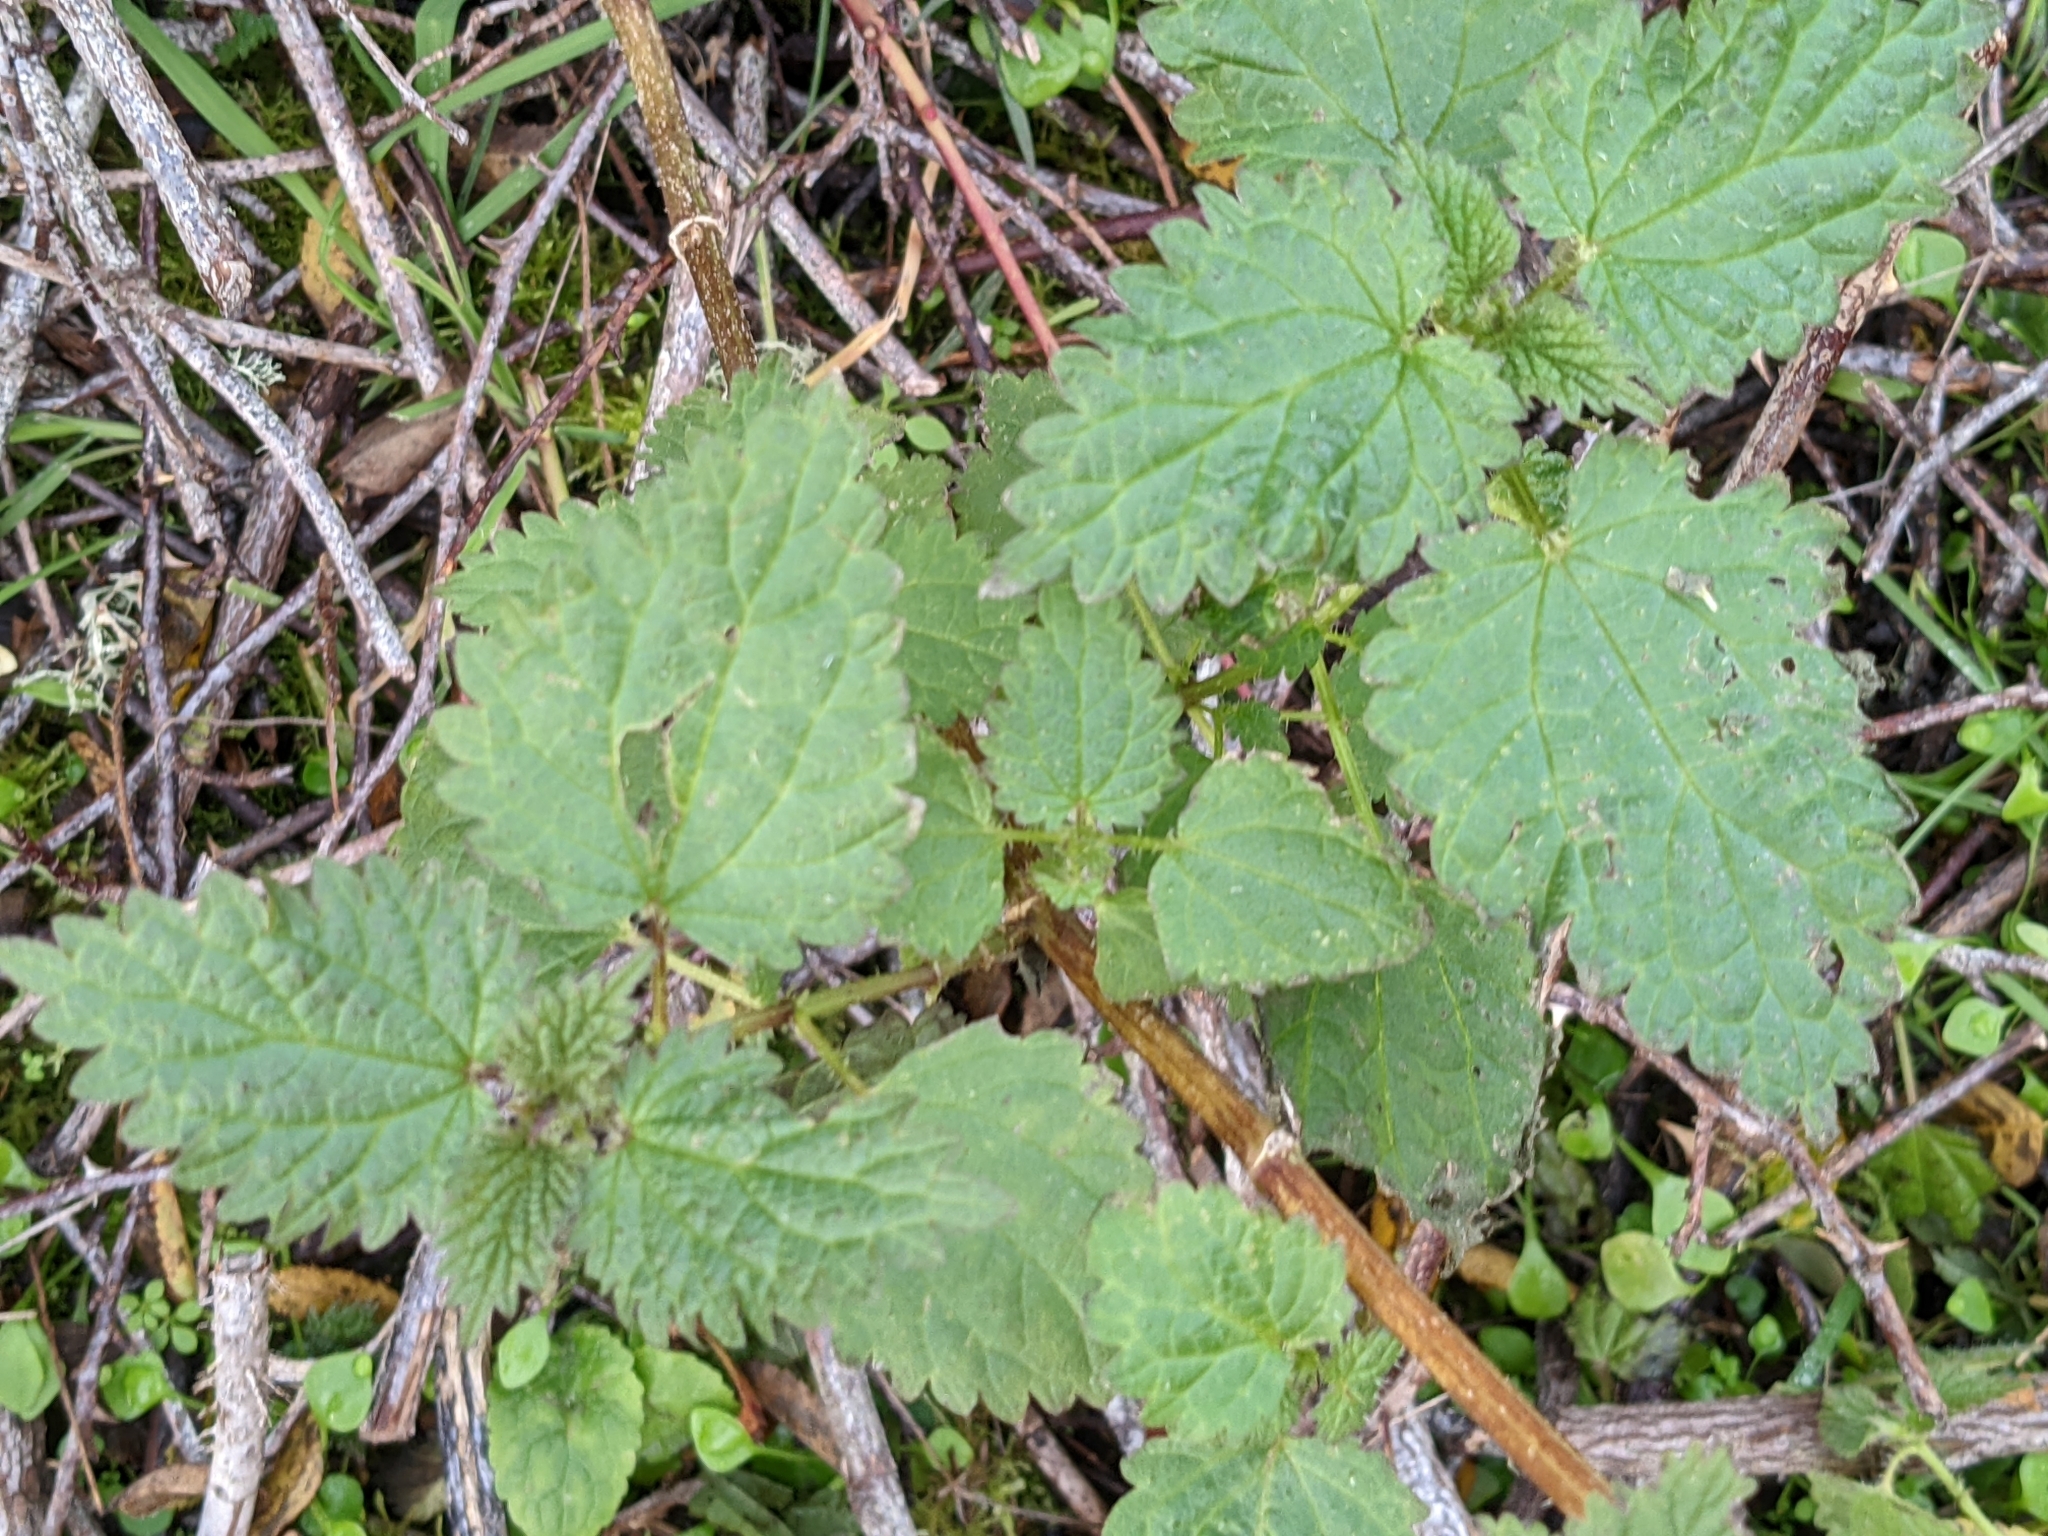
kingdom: Plantae
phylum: Tracheophyta
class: Magnoliopsida
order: Rosales
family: Urticaceae
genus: Urtica
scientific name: Urtica dioica
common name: Common nettle
